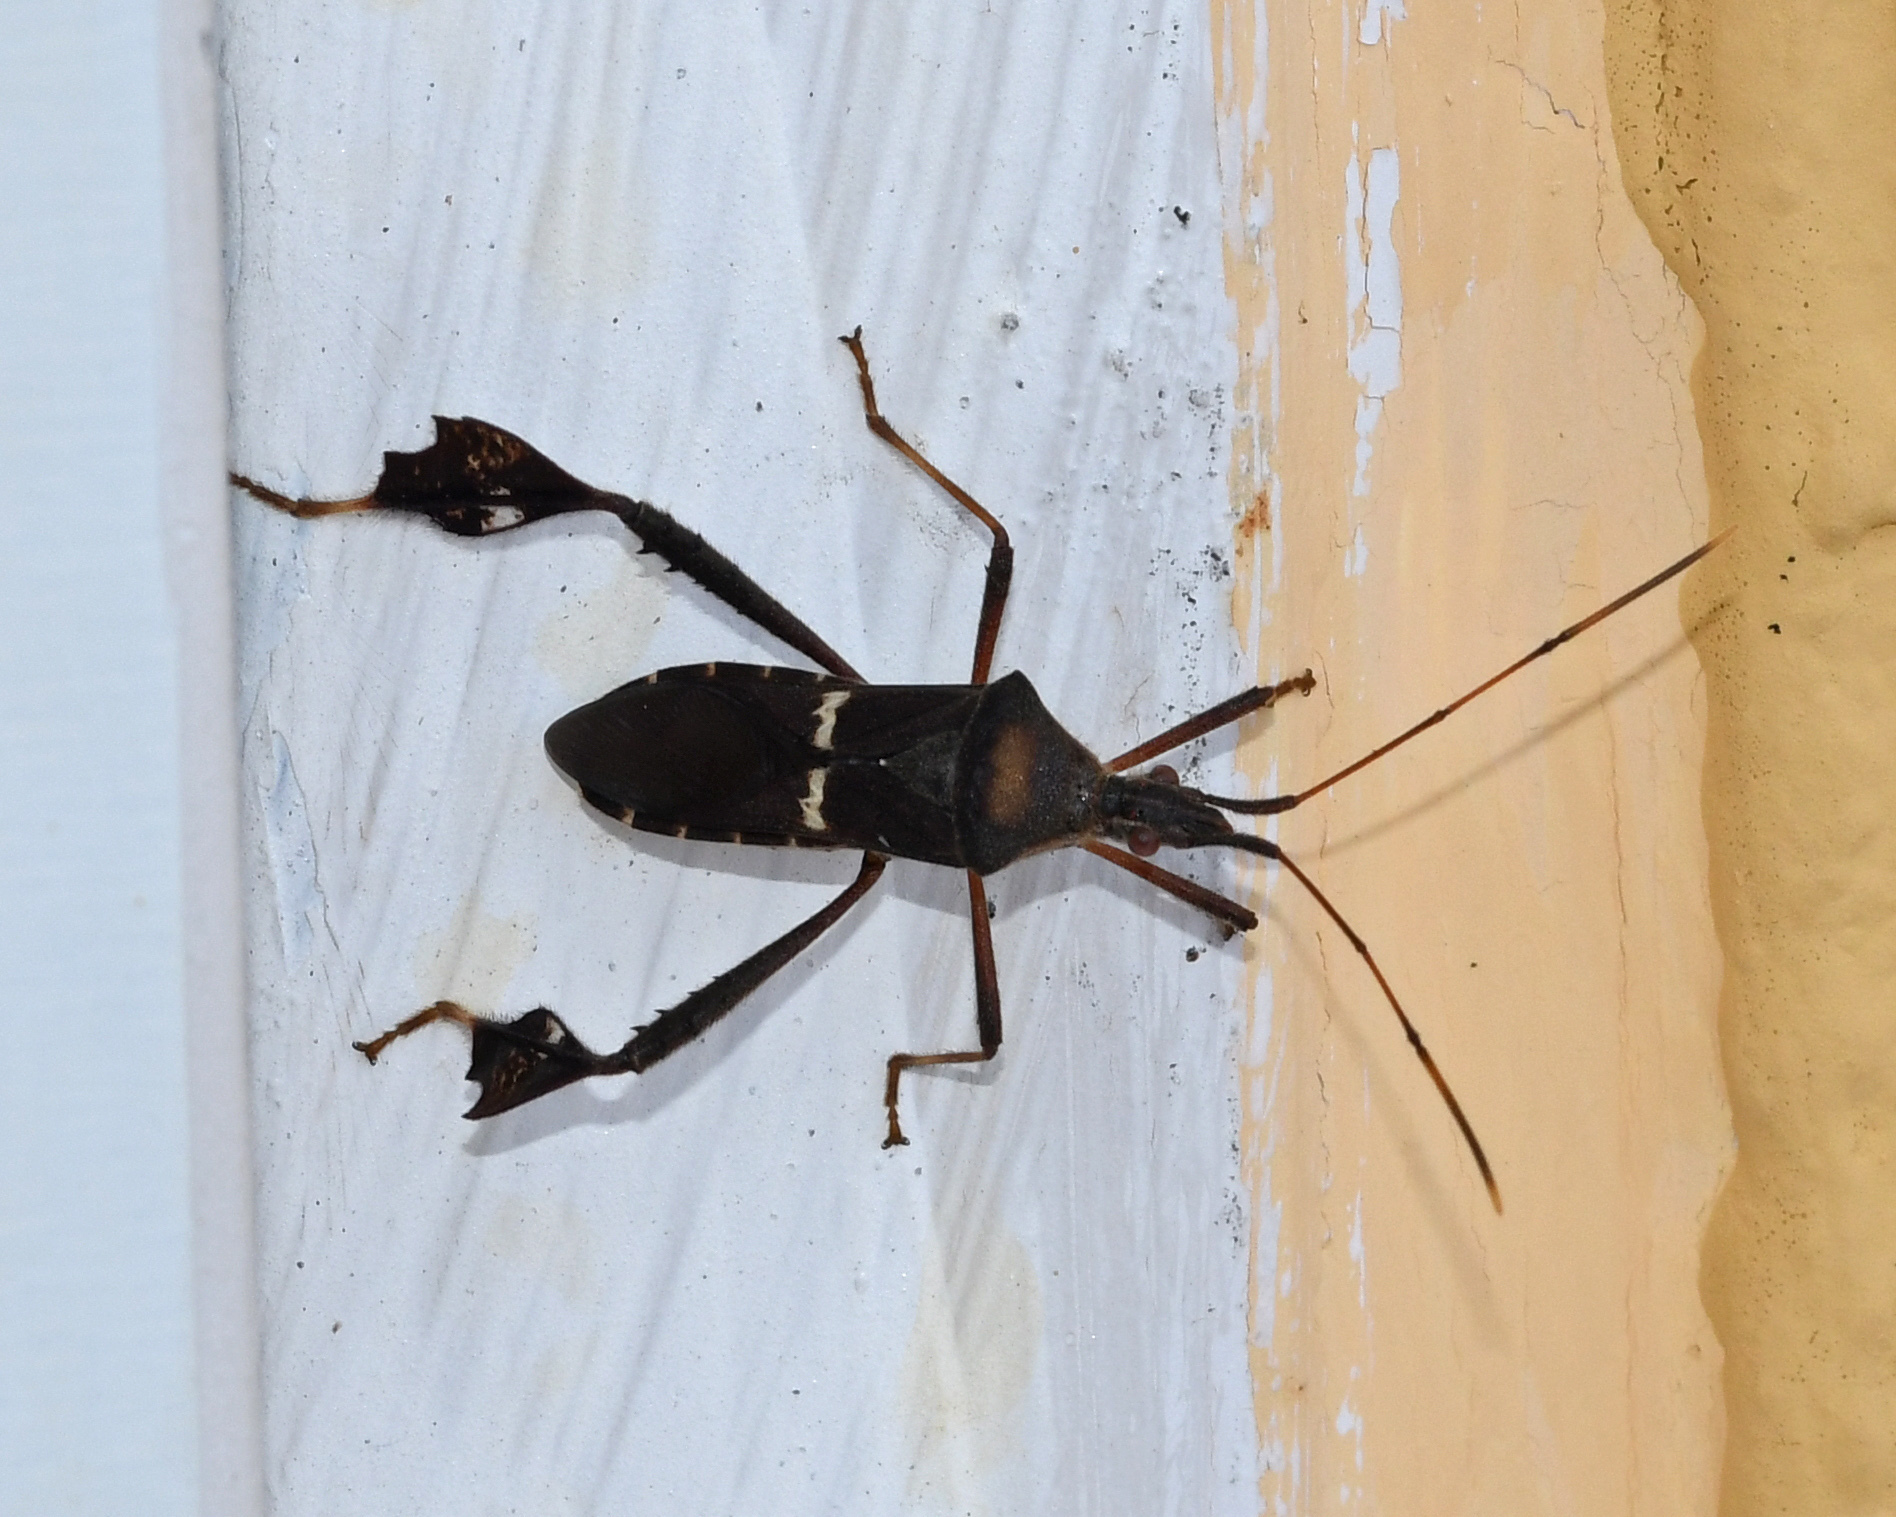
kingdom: Animalia
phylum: Arthropoda
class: Insecta
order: Hemiptera
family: Coreidae
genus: Leptoglossus
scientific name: Leptoglossus concolor
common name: Leaf-footed bug
